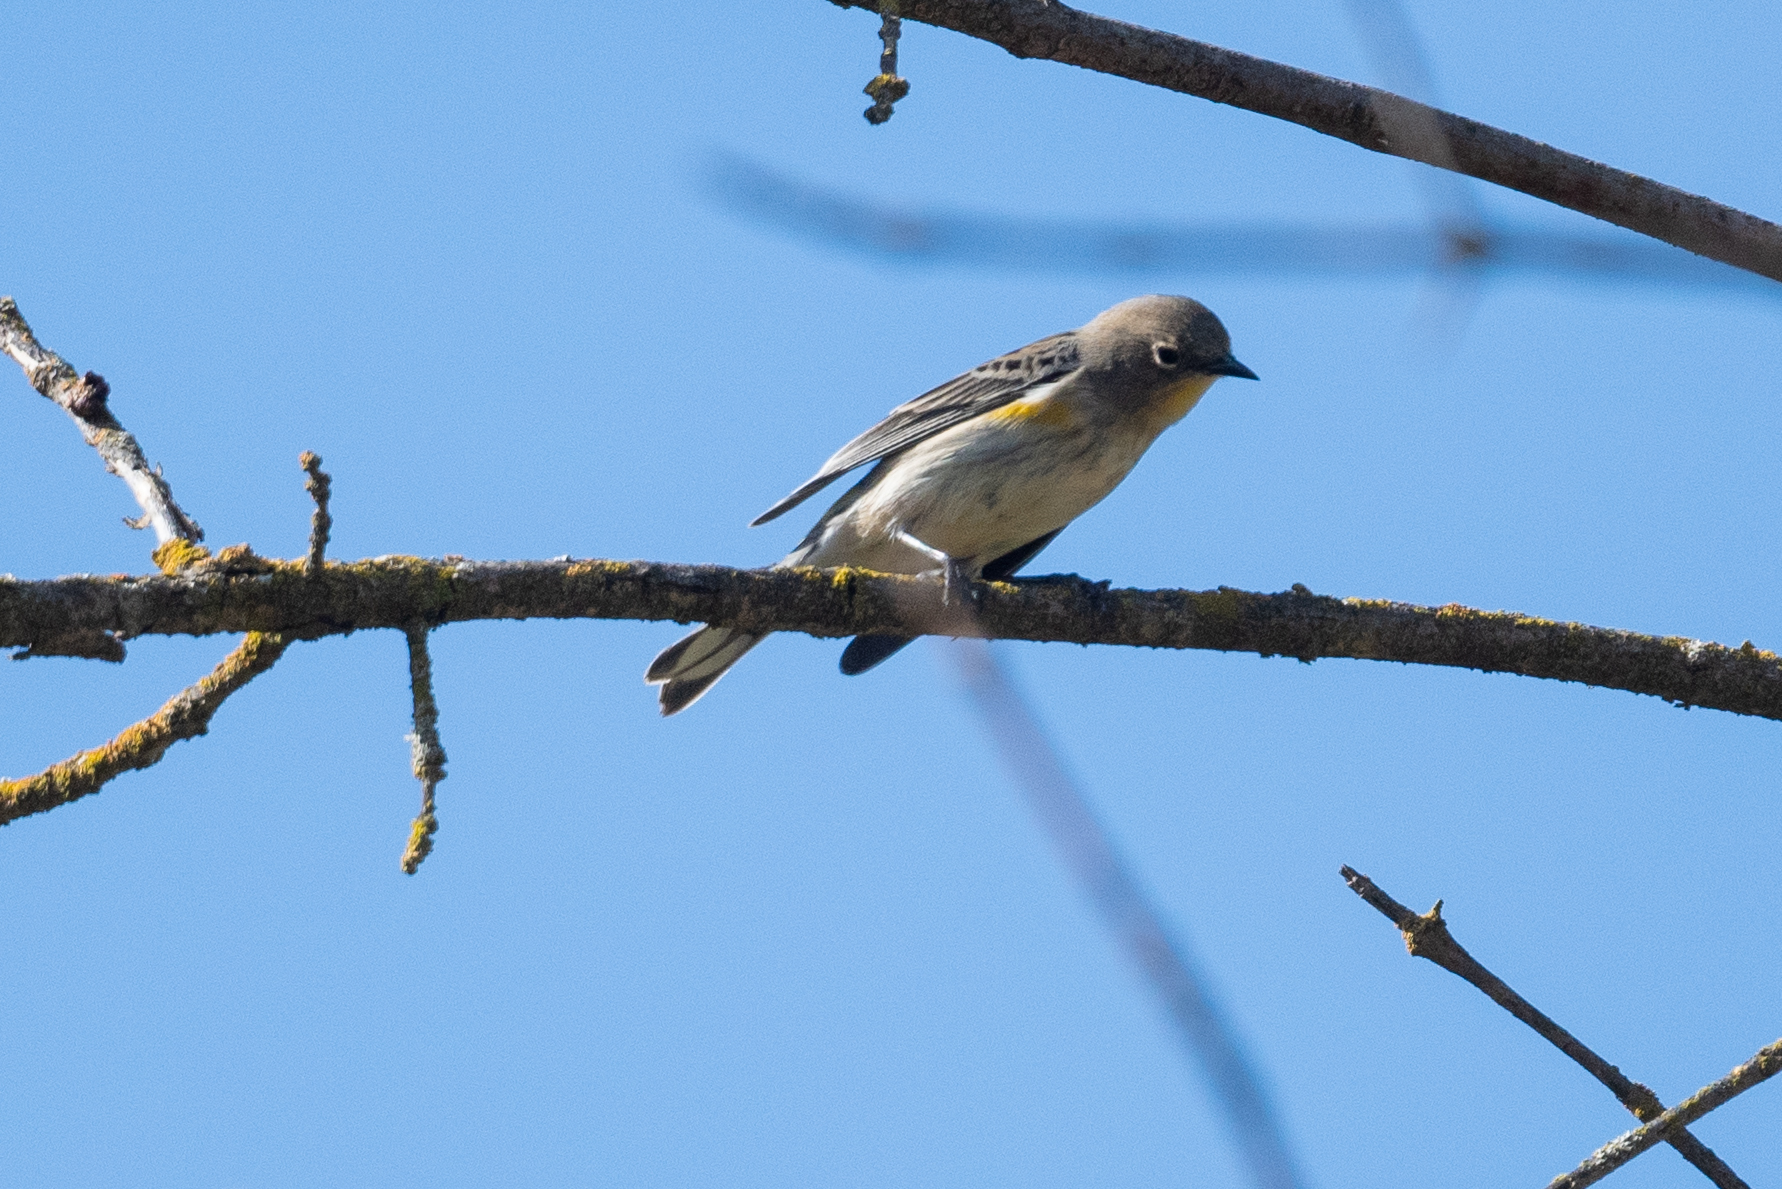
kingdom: Animalia
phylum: Chordata
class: Aves
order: Passeriformes
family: Parulidae
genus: Setophaga
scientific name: Setophaga coronata
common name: Myrtle warbler
